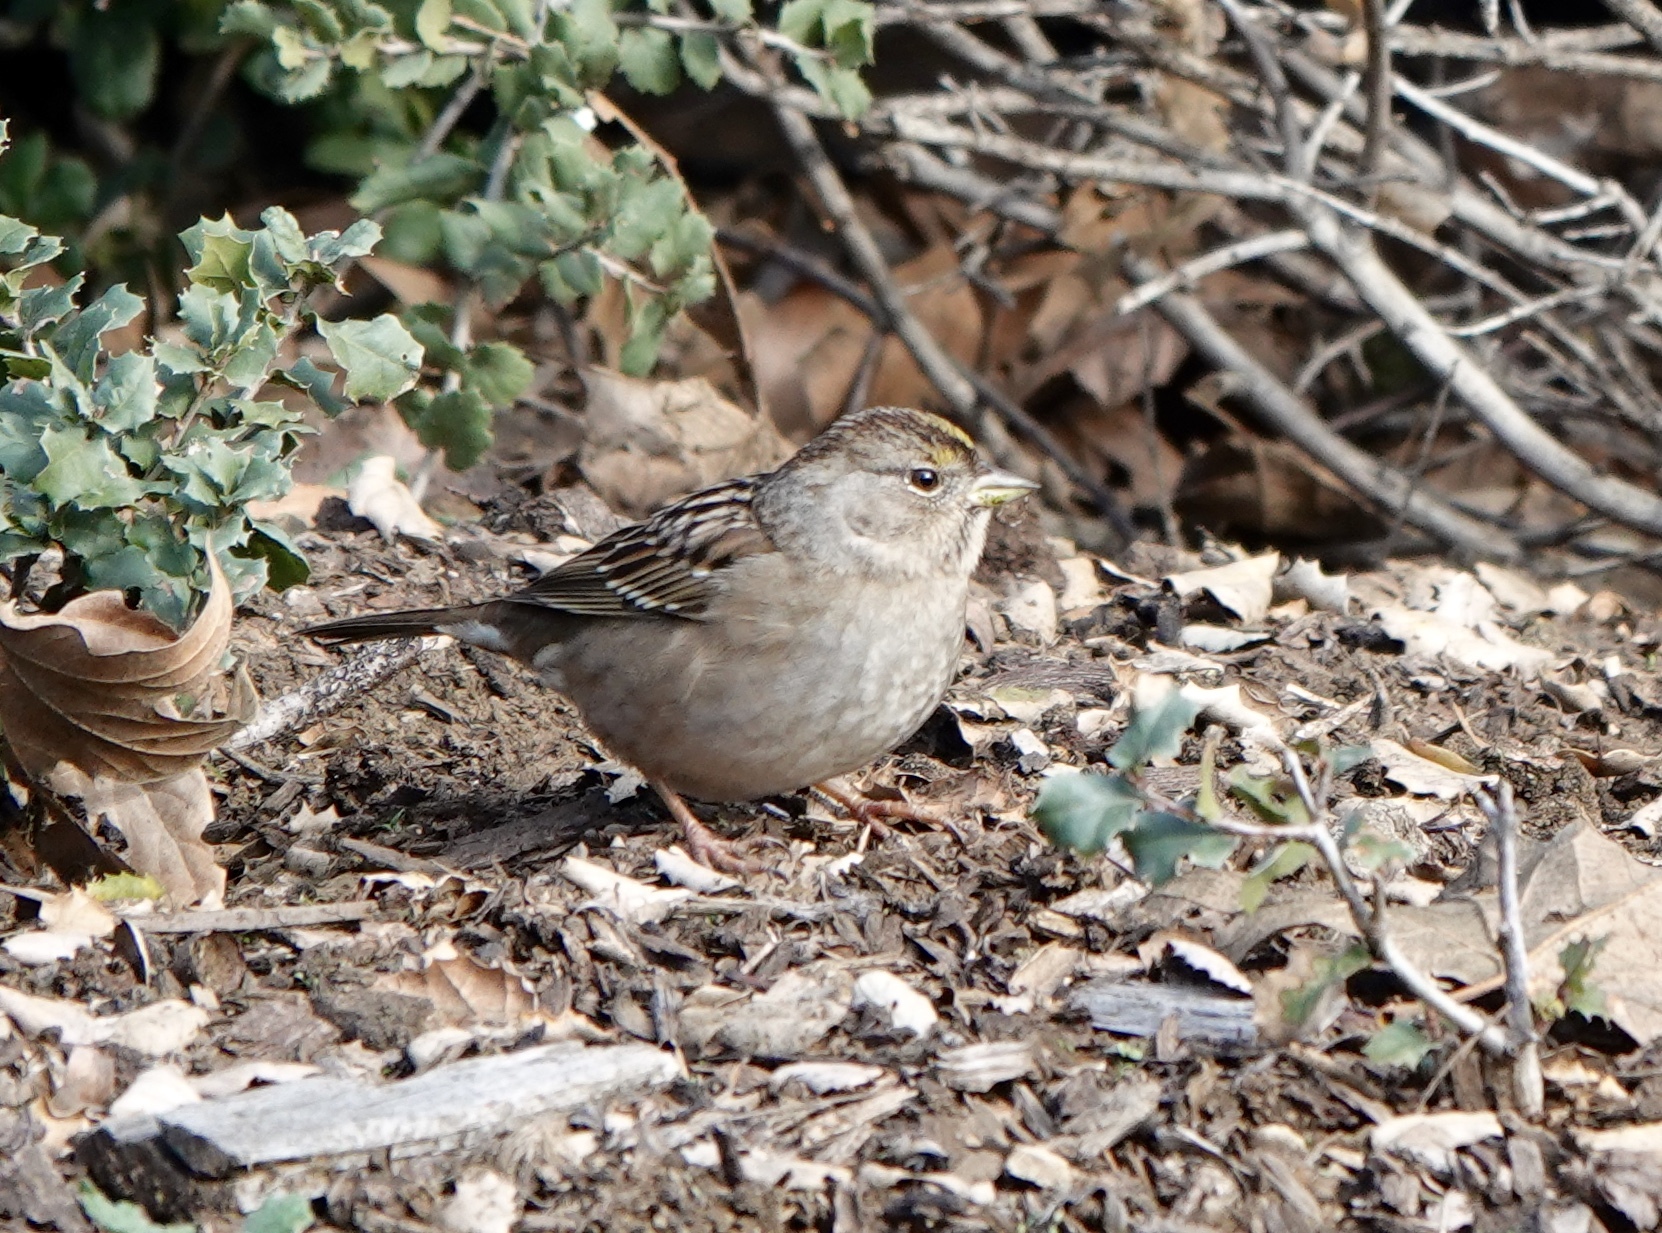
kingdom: Animalia
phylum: Chordata
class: Aves
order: Passeriformes
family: Passerellidae
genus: Zonotrichia
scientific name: Zonotrichia atricapilla
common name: Golden-crowned sparrow
